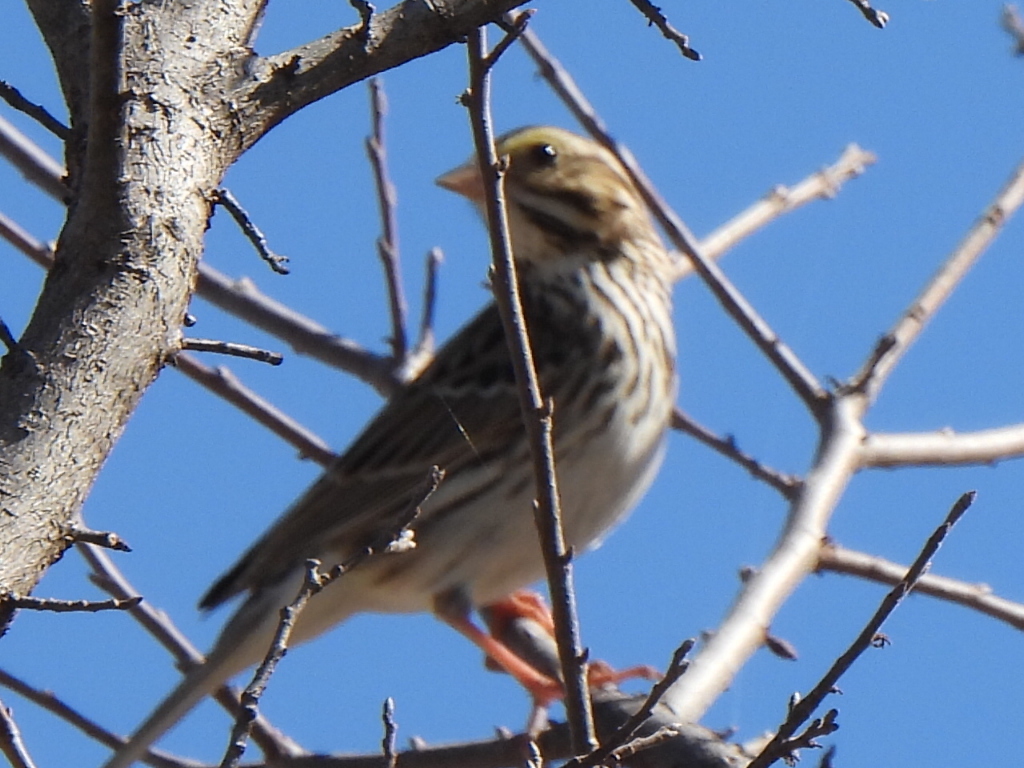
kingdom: Animalia
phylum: Chordata
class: Aves
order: Passeriformes
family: Passerellidae
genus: Passerculus
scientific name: Passerculus sandwichensis
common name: Savannah sparrow
